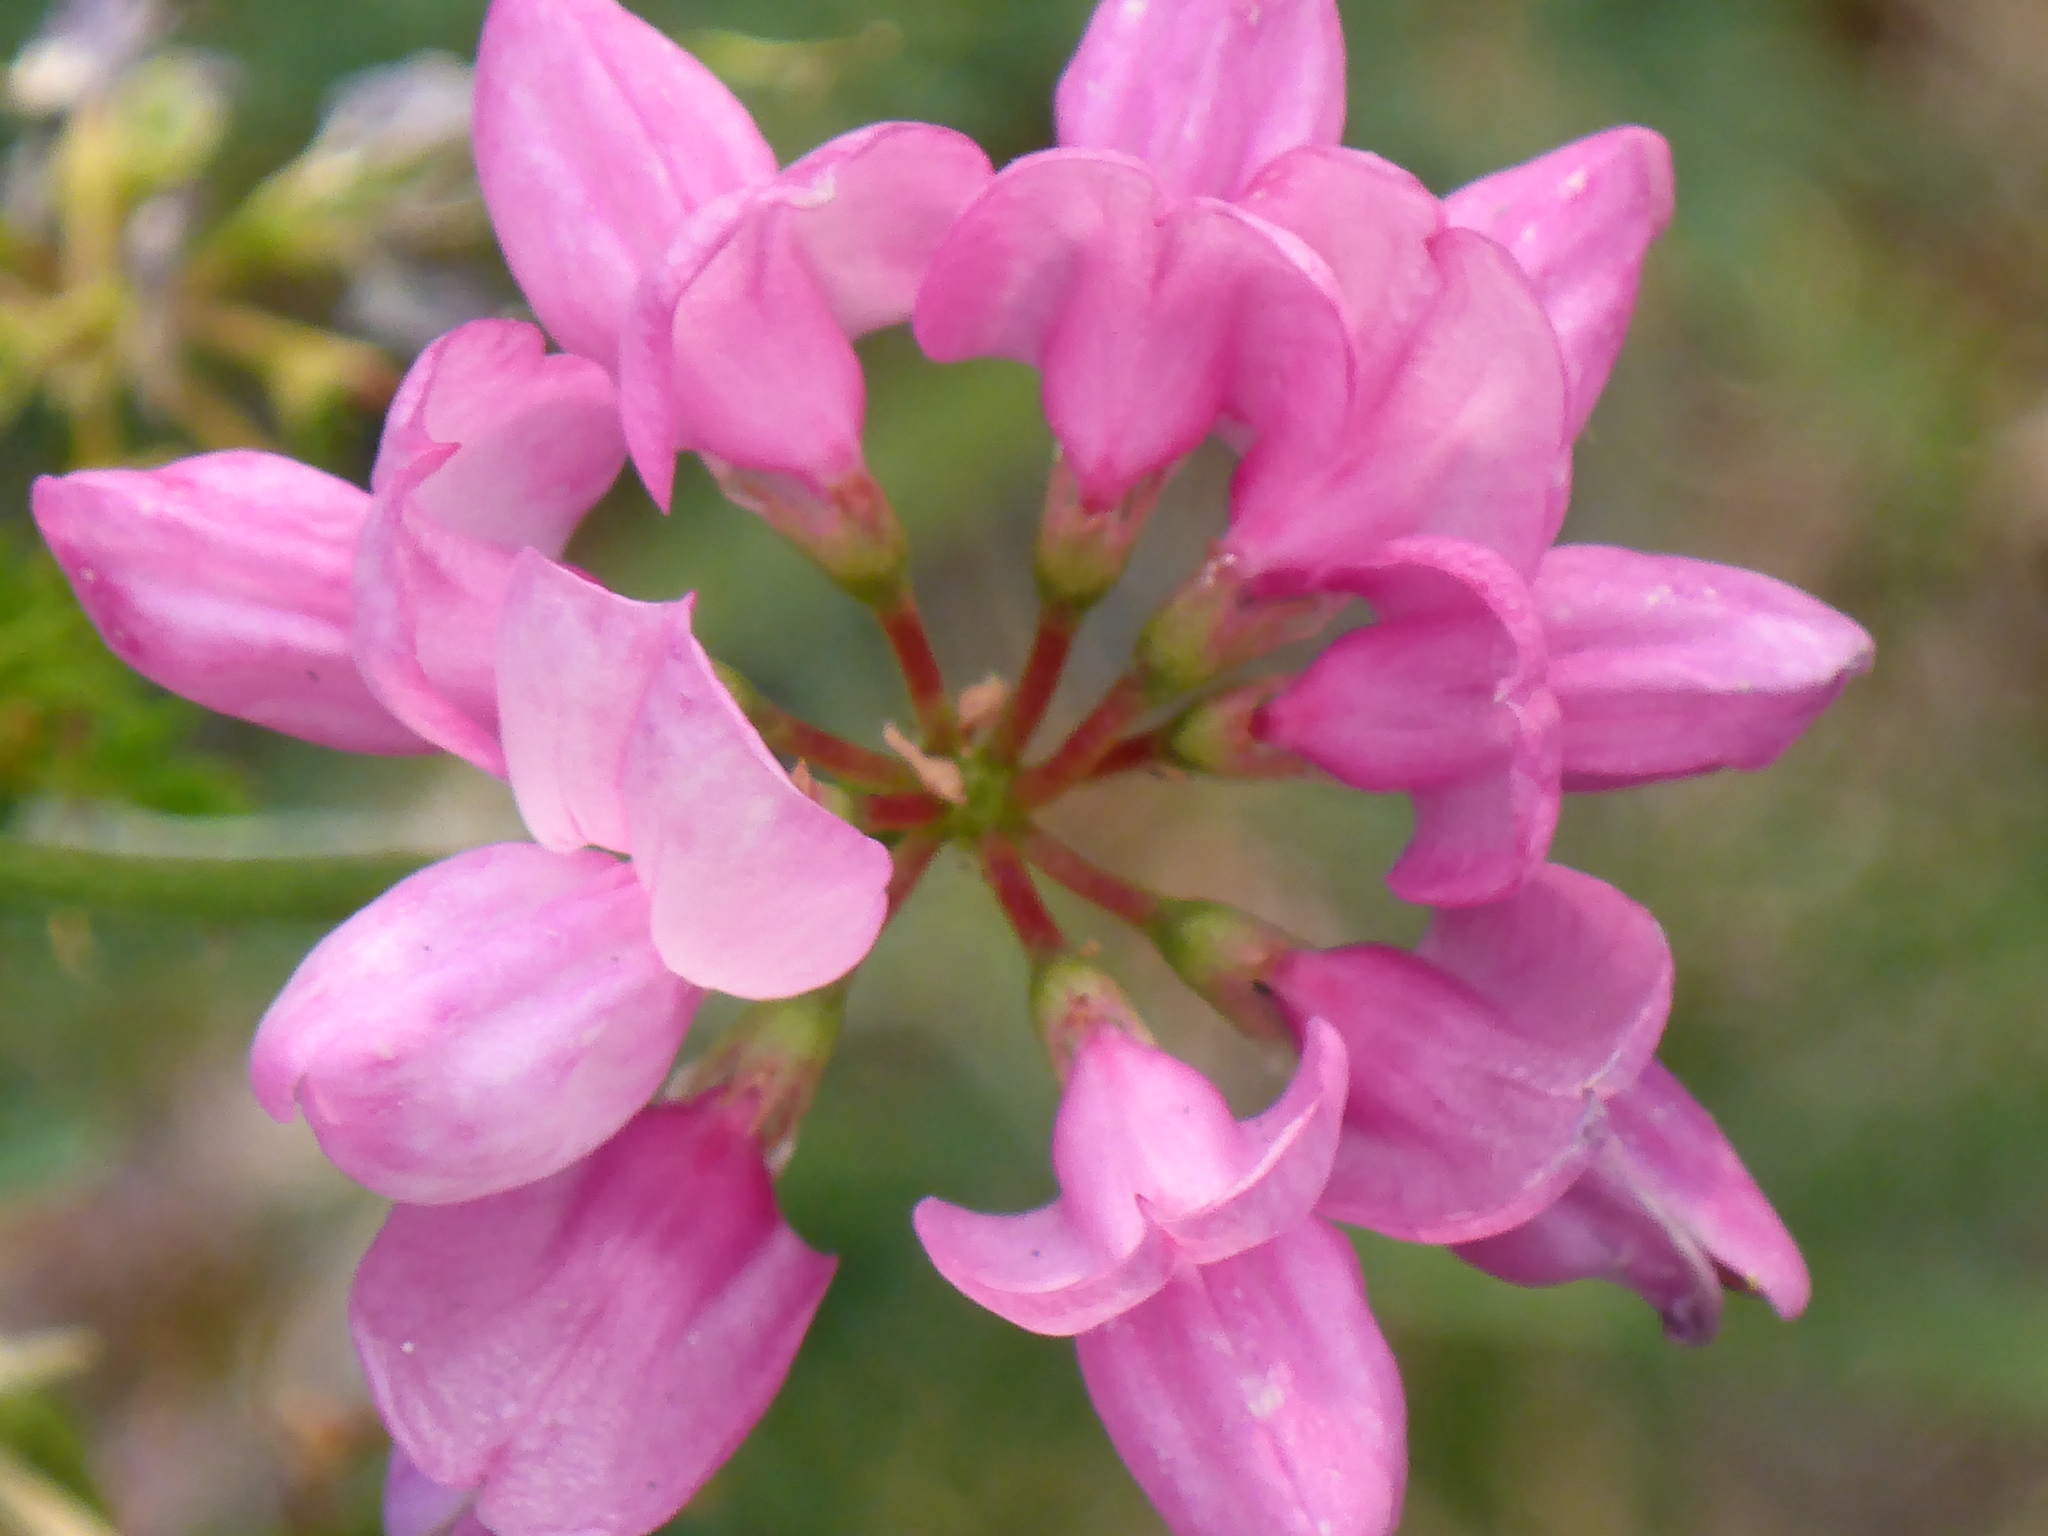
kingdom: Plantae
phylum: Tracheophyta
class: Magnoliopsida
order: Fabales
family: Fabaceae
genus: Coronilla
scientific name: Coronilla varia
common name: Crownvetch
